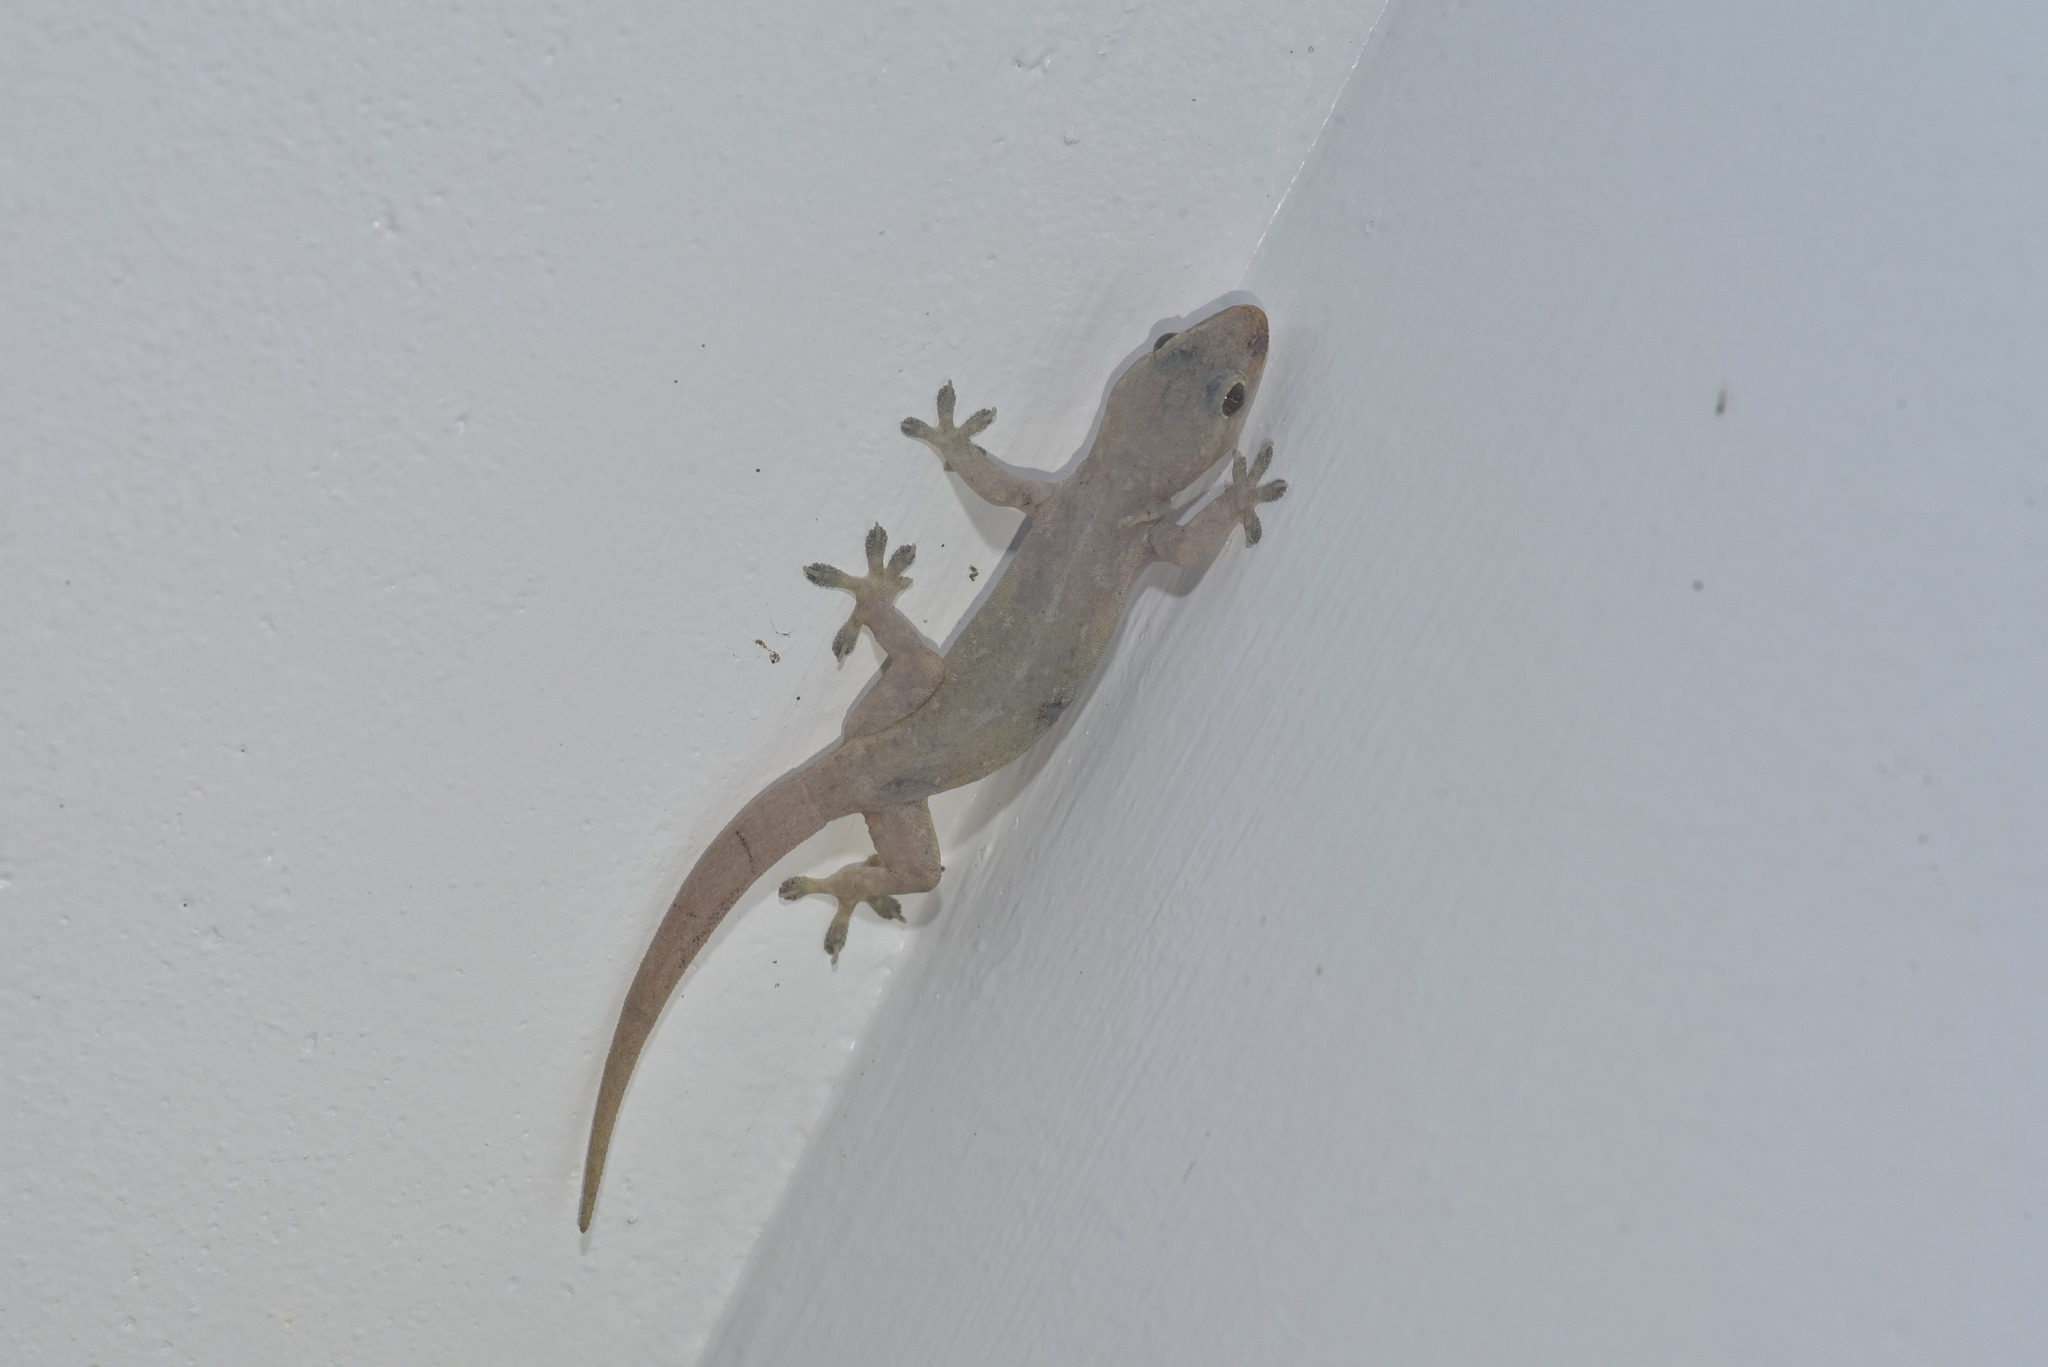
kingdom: Animalia
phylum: Chordata
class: Squamata
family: Gekkonidae
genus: Hemidactylus
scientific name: Hemidactylus frenatus
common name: Common house gecko
